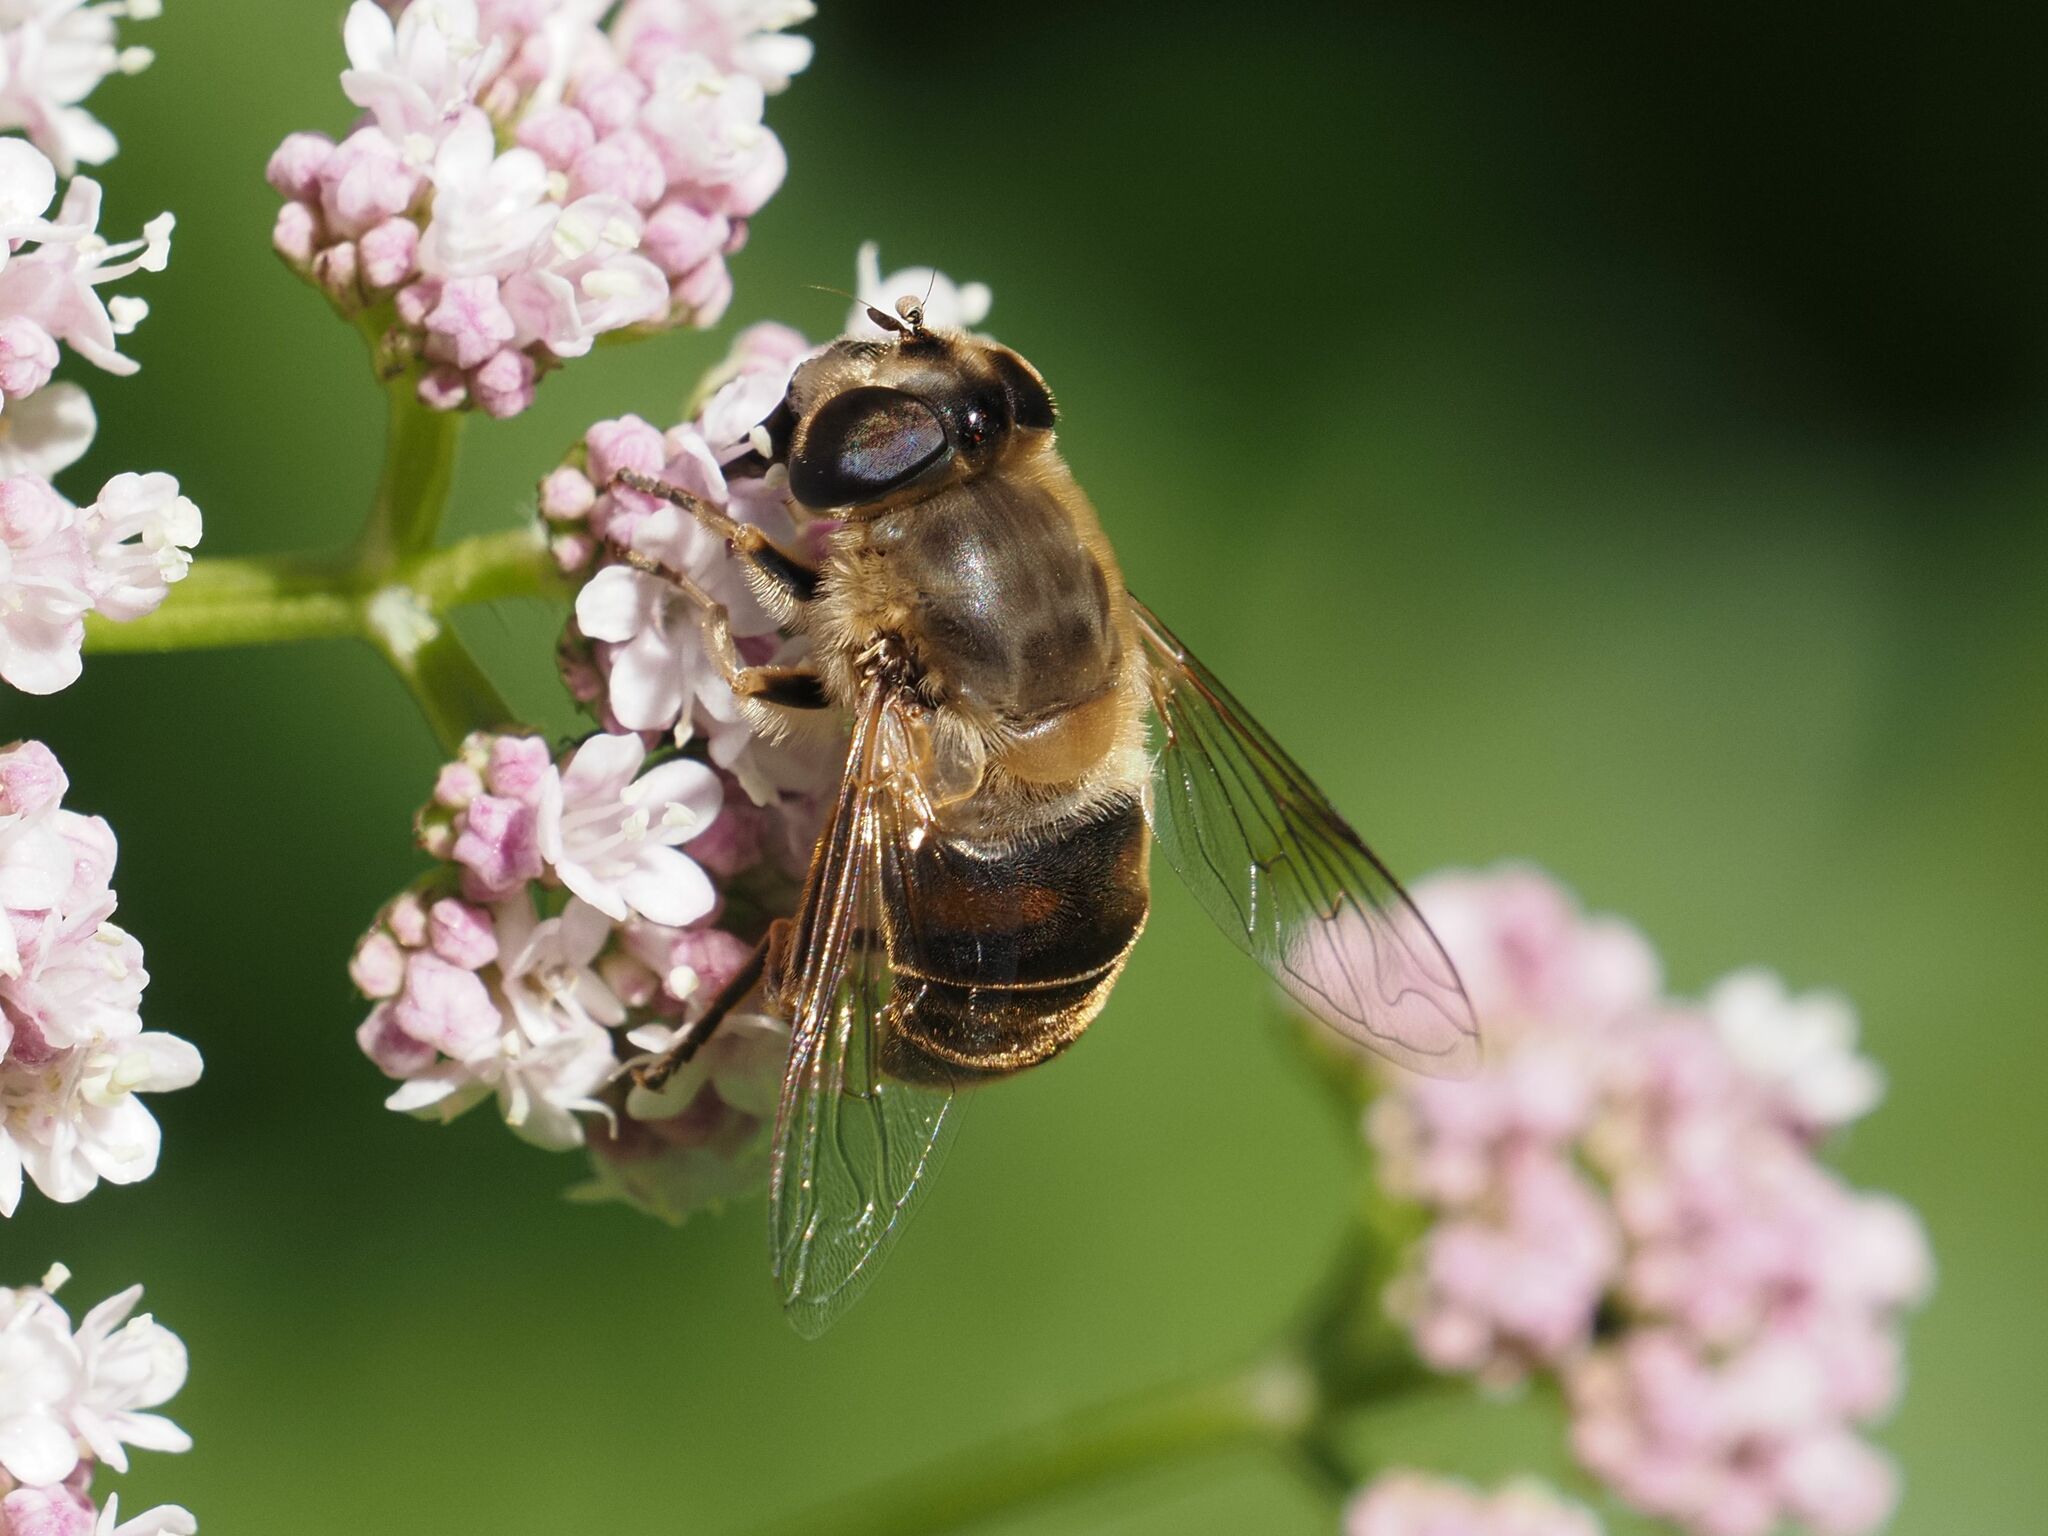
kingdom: Animalia
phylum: Arthropoda
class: Insecta
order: Diptera
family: Syrphidae
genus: Eristalis
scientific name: Eristalis tenax
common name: Drone fly
